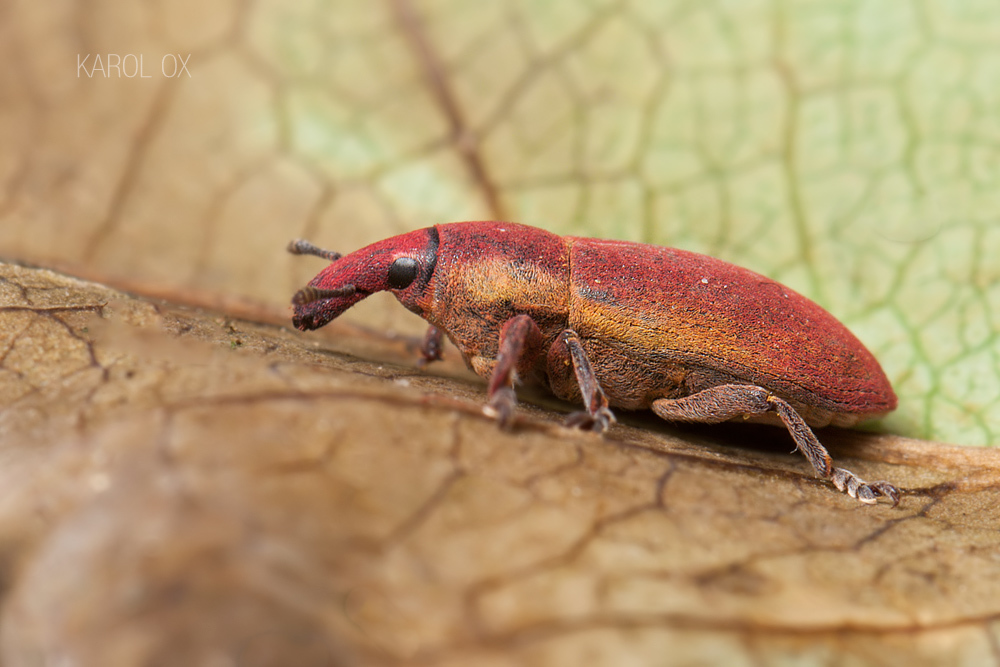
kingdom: Animalia
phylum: Arthropoda
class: Insecta
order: Coleoptera
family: Curculionidae
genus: Lixus
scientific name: Lixus angustus
